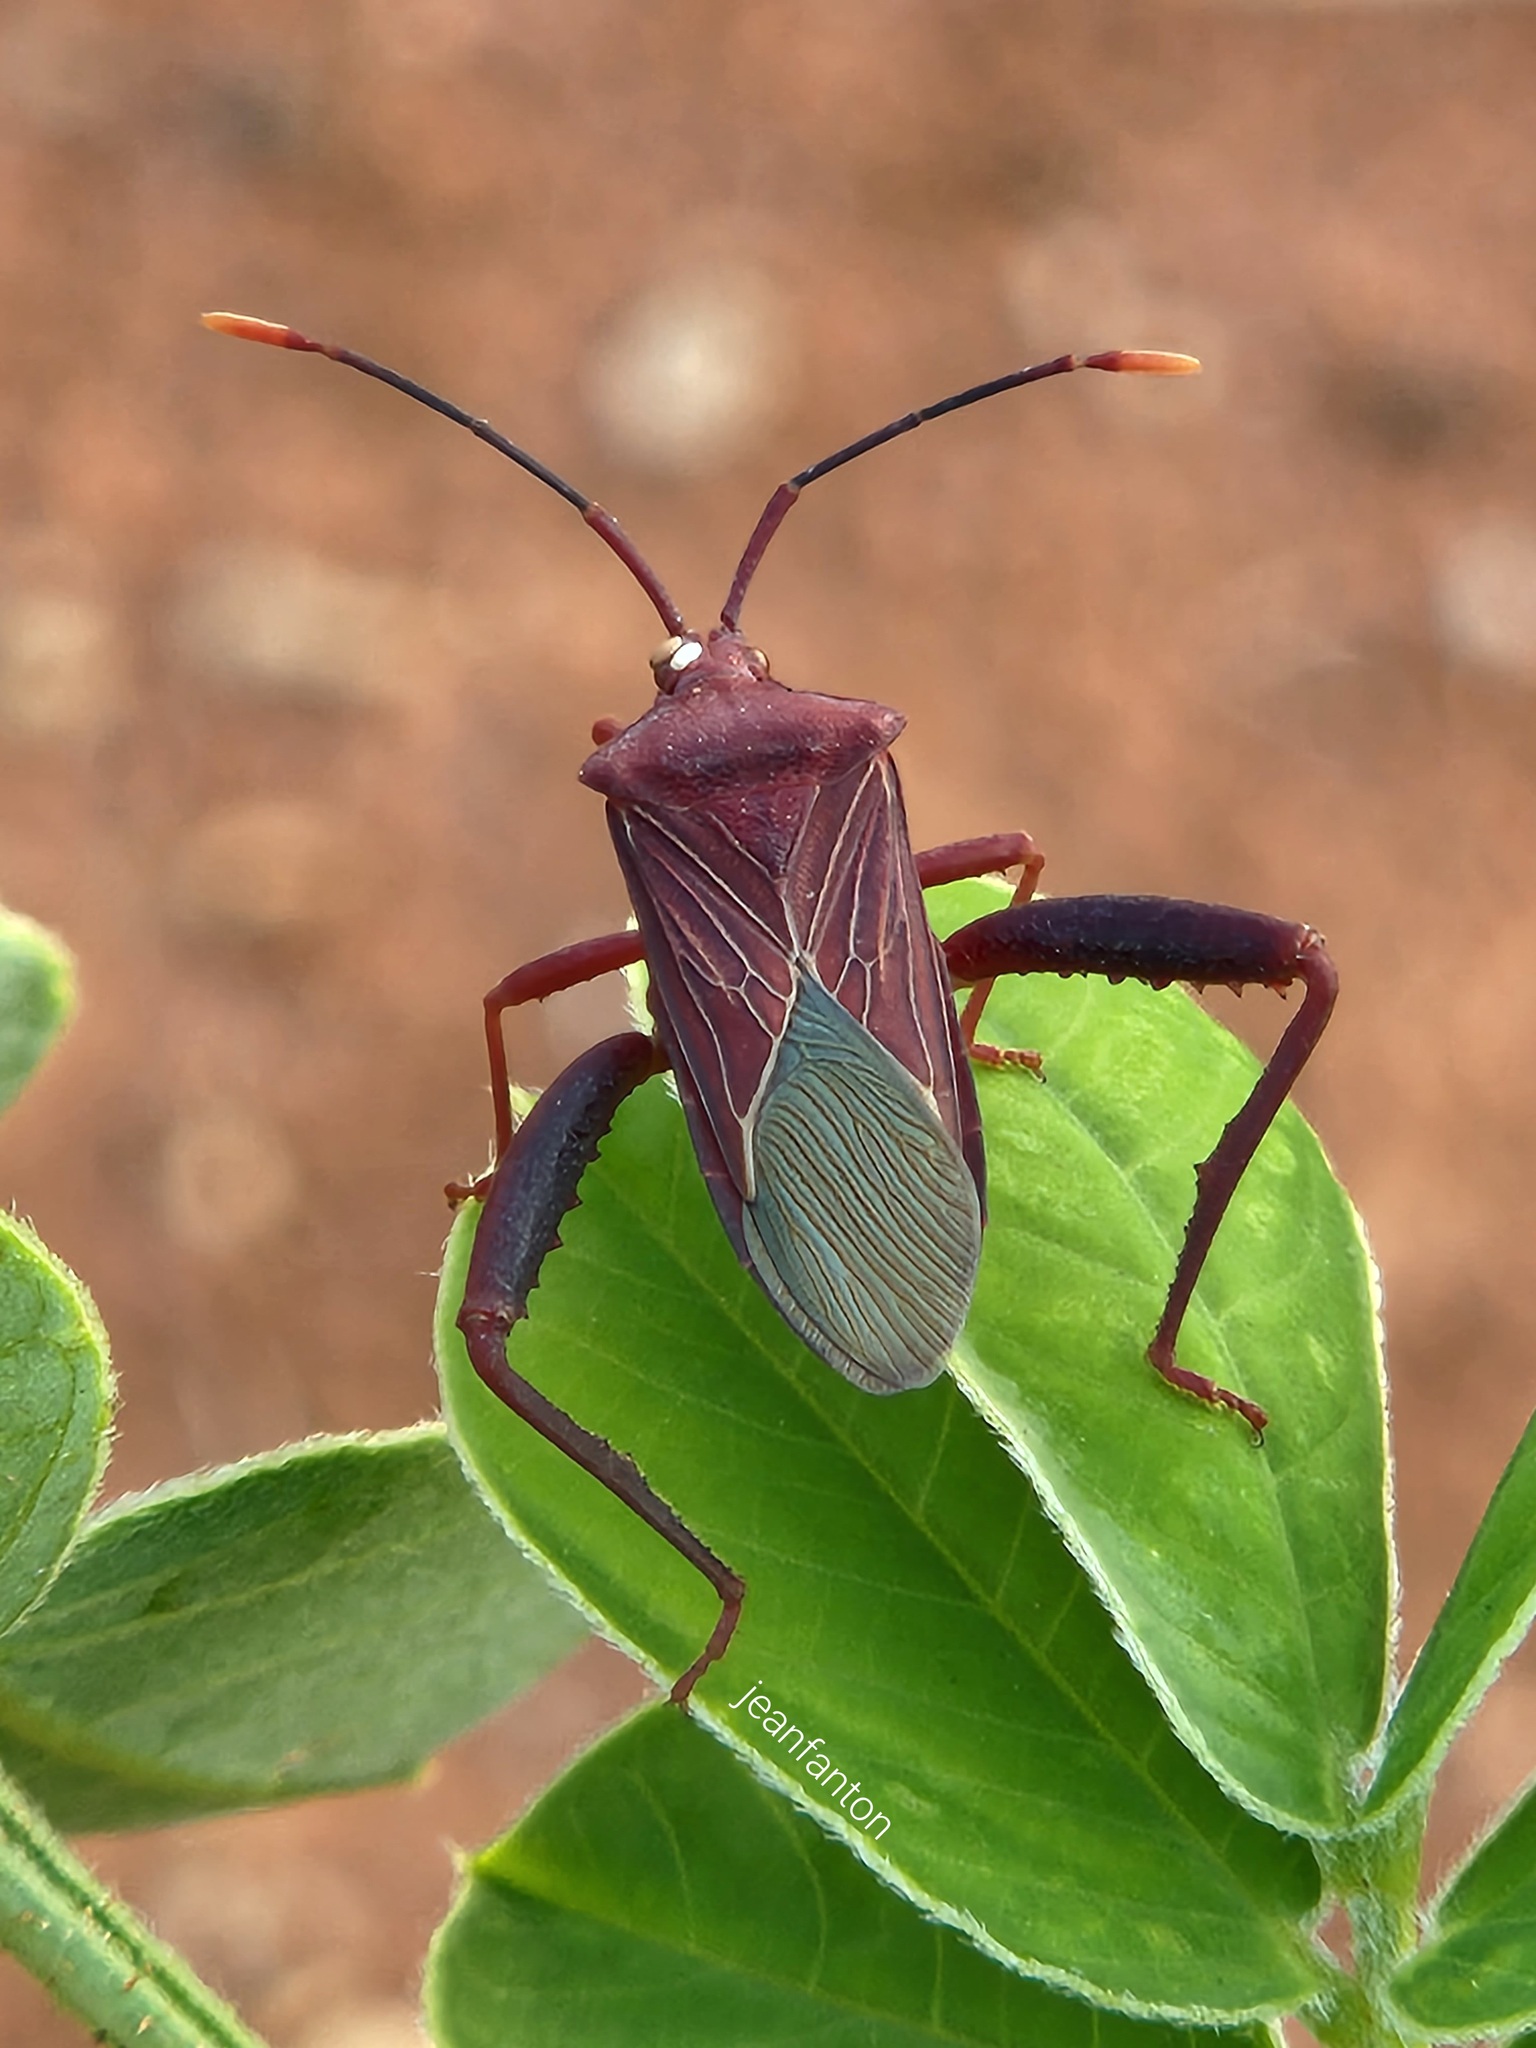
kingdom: Animalia
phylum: Arthropoda
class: Insecta
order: Hemiptera
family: Coreidae
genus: Athaumastus
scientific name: Athaumastus haematicus
